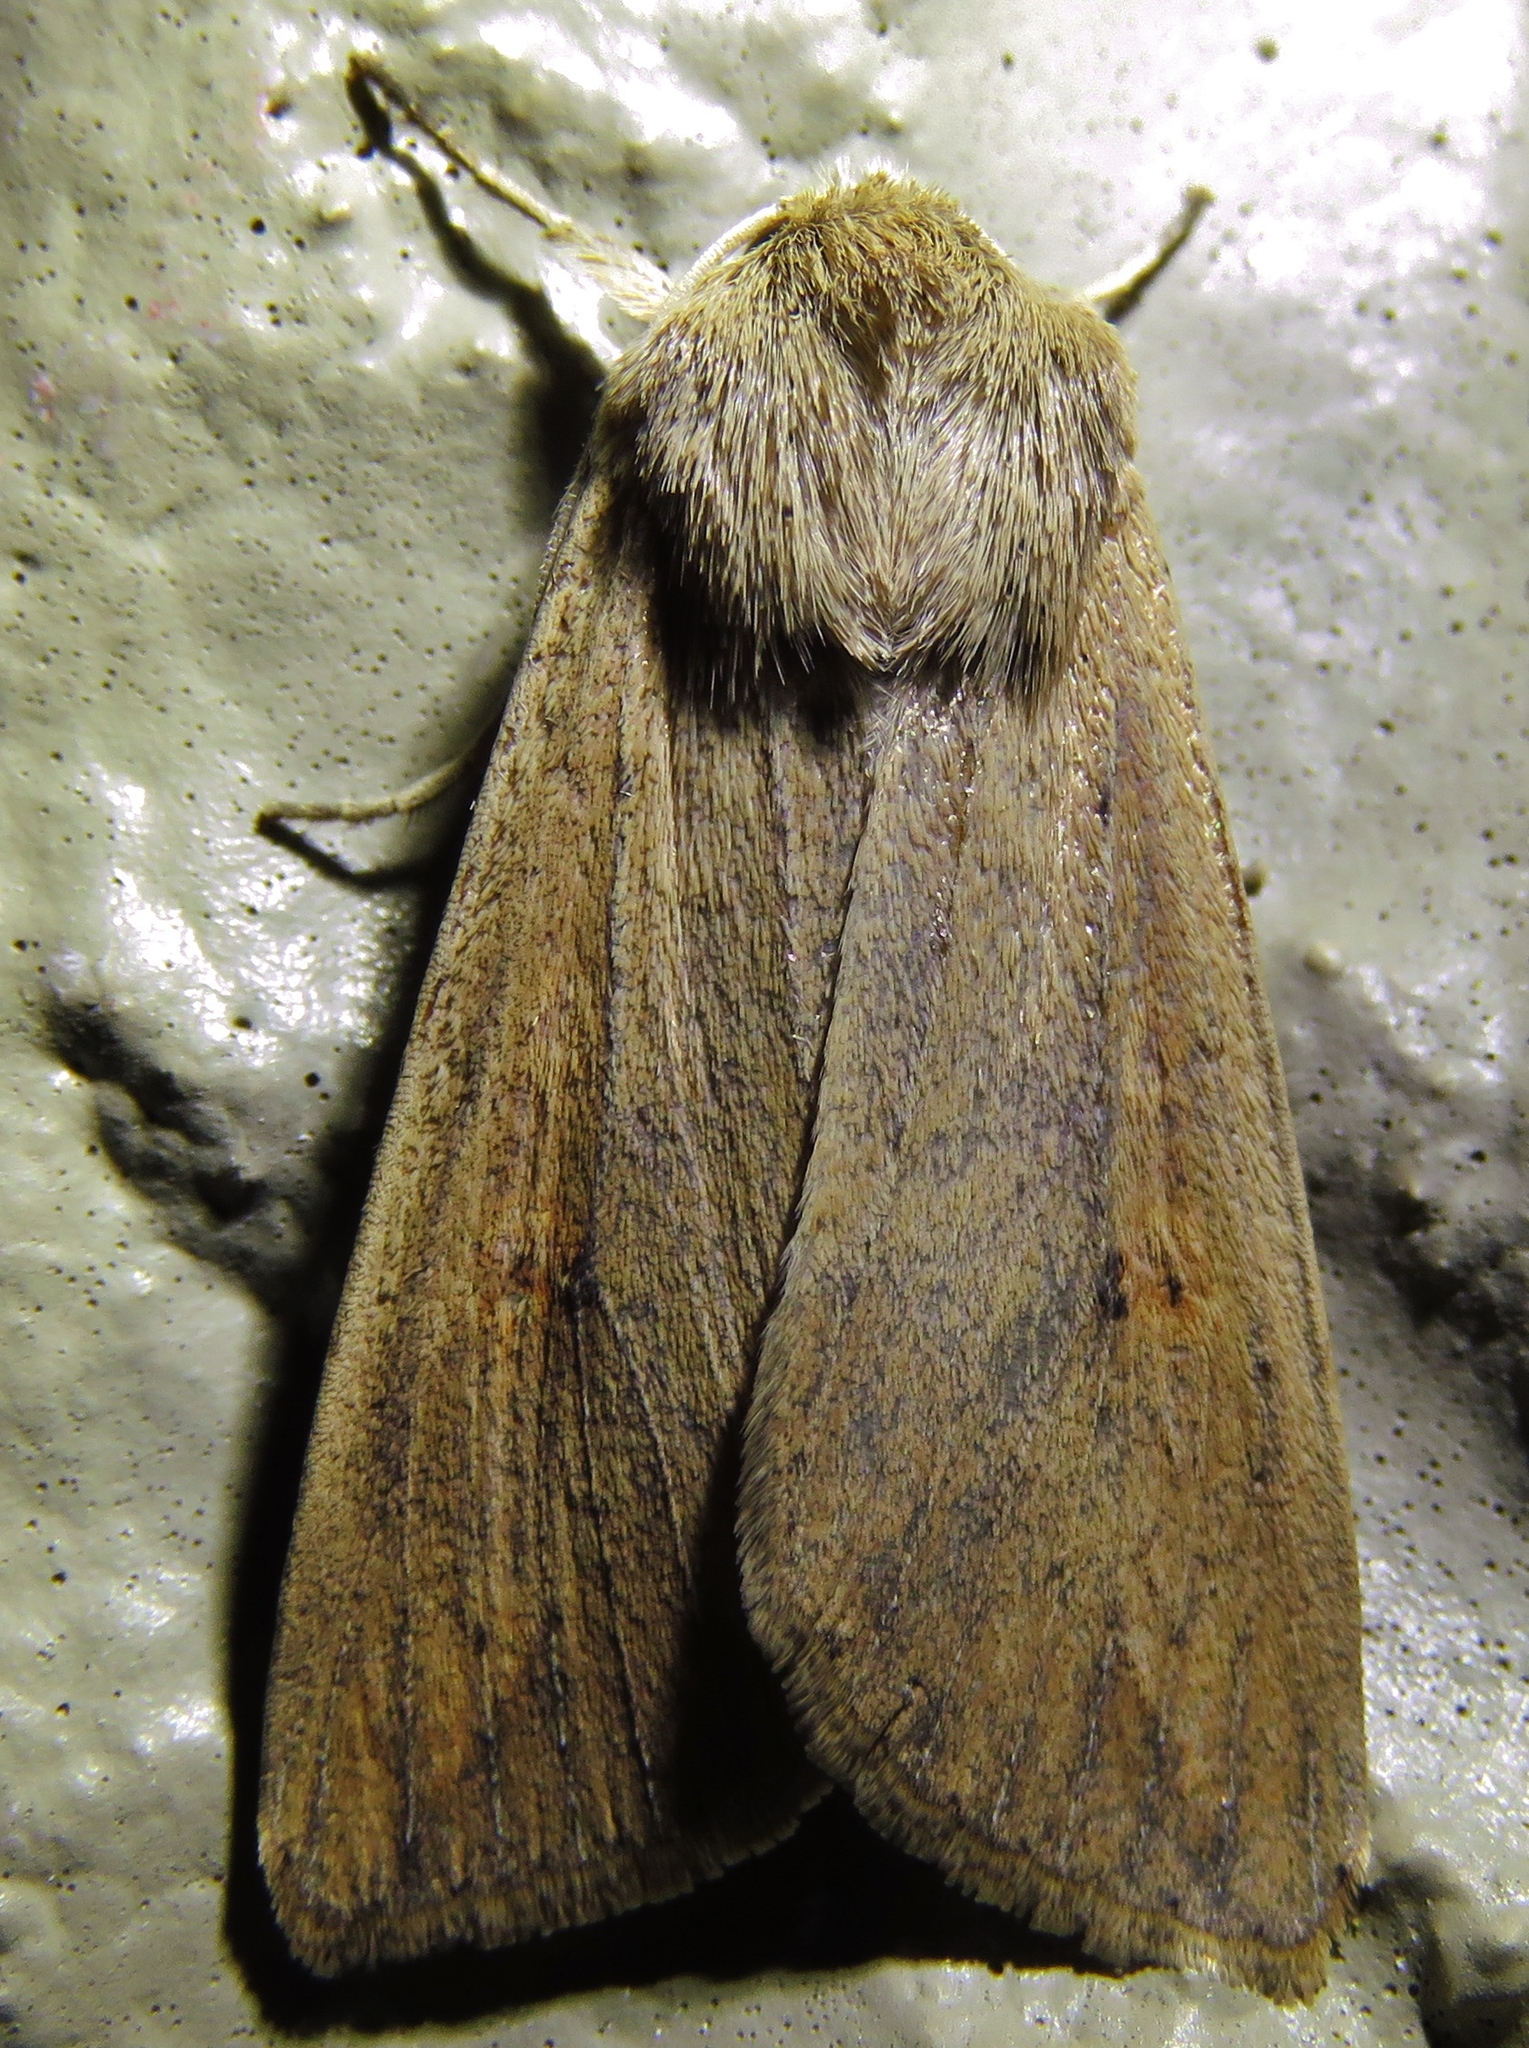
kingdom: Animalia
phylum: Arthropoda
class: Insecta
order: Lepidoptera
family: Noctuidae
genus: Mythimna
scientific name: Mythimna unipuncta
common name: White-speck
